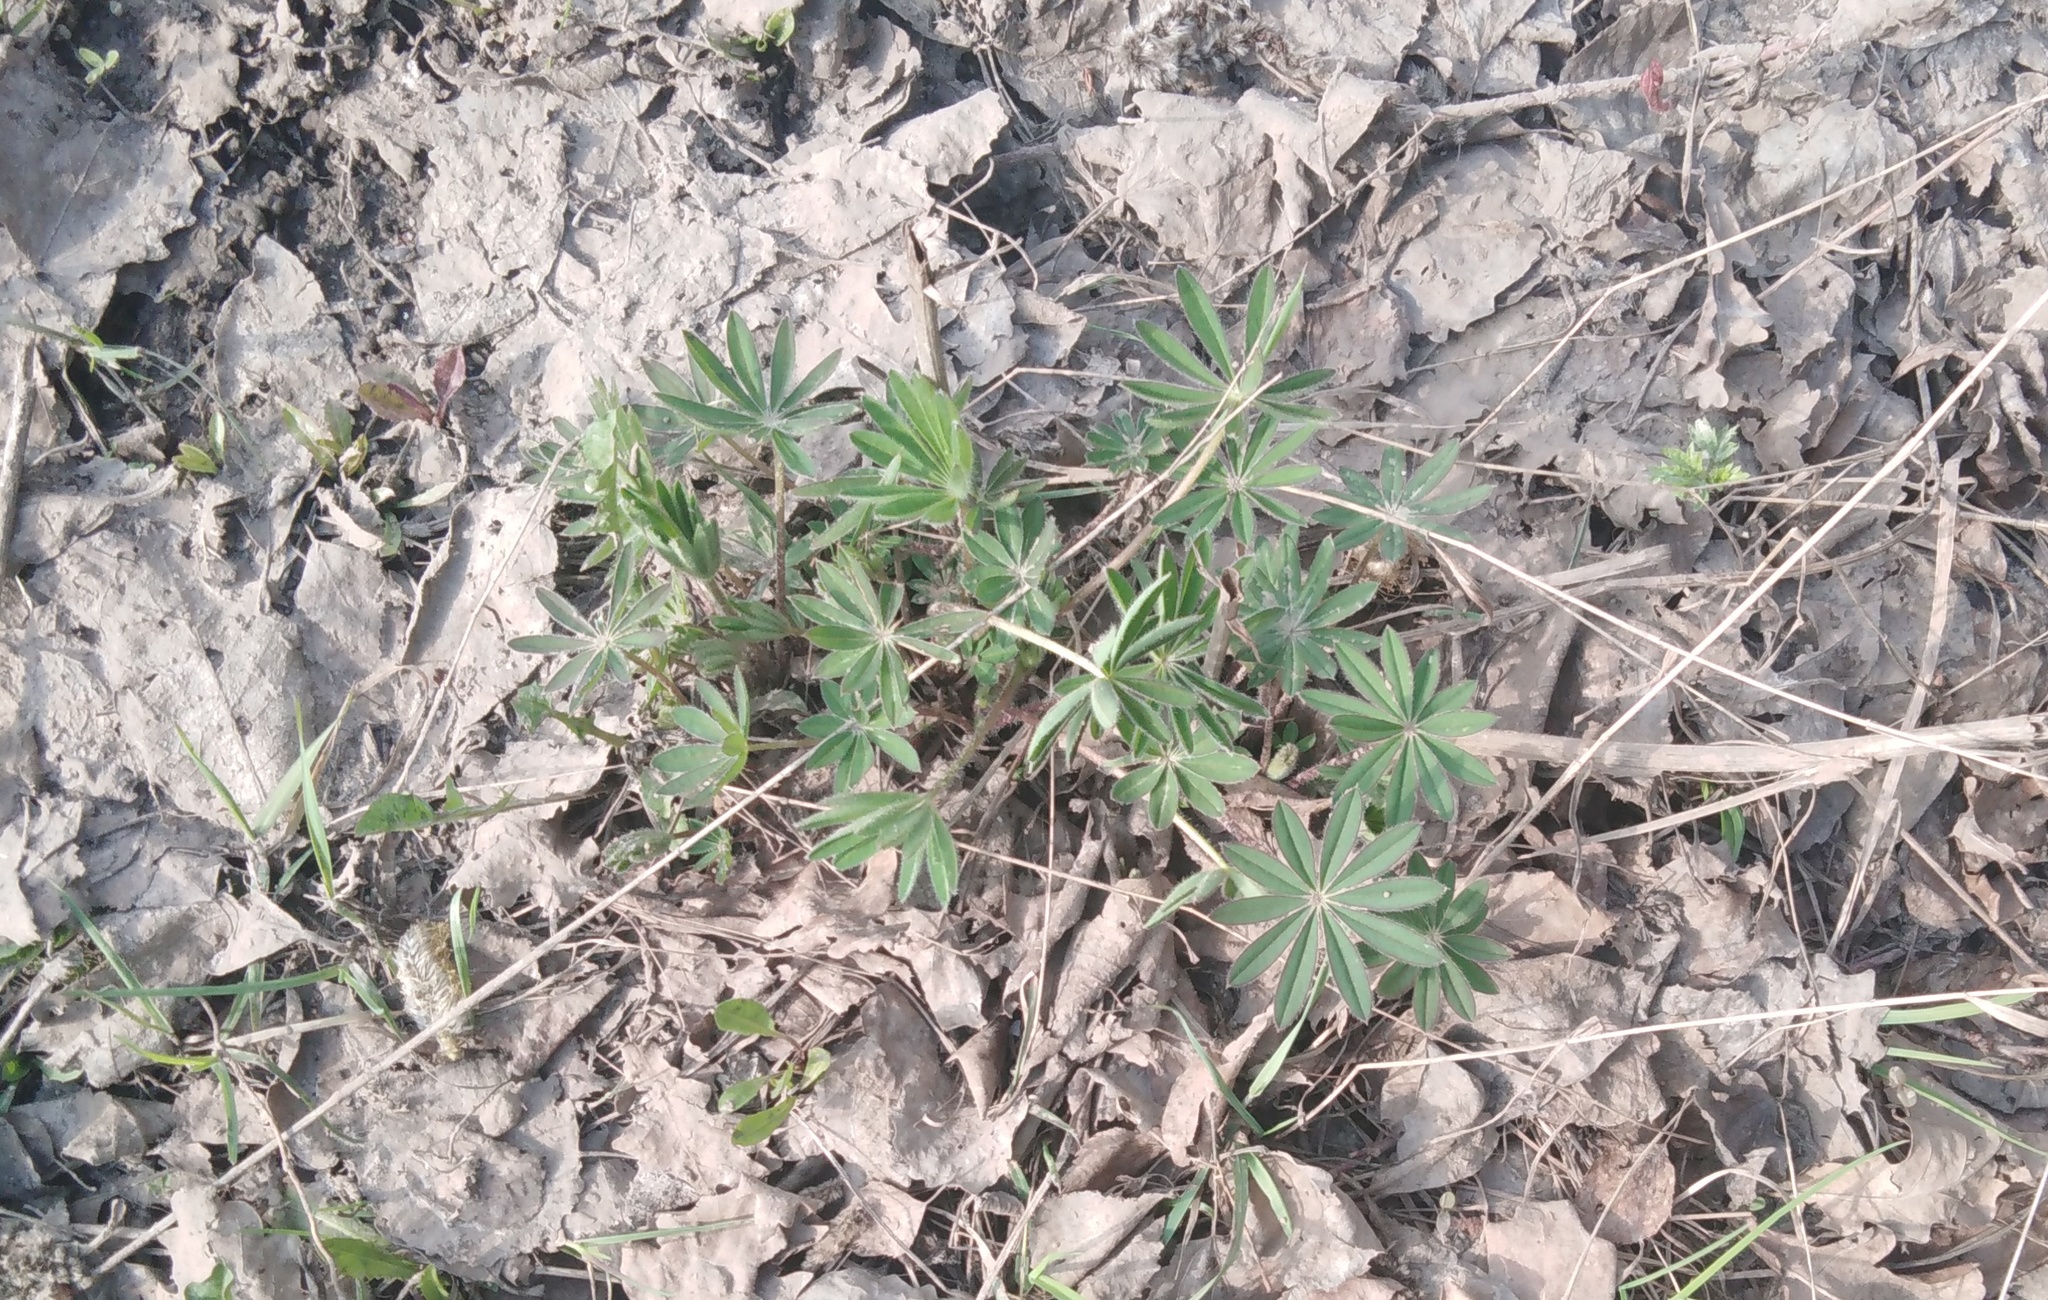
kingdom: Plantae
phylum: Tracheophyta
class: Magnoliopsida
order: Fabales
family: Fabaceae
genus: Lupinus
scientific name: Lupinus polyphyllus
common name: Garden lupin
